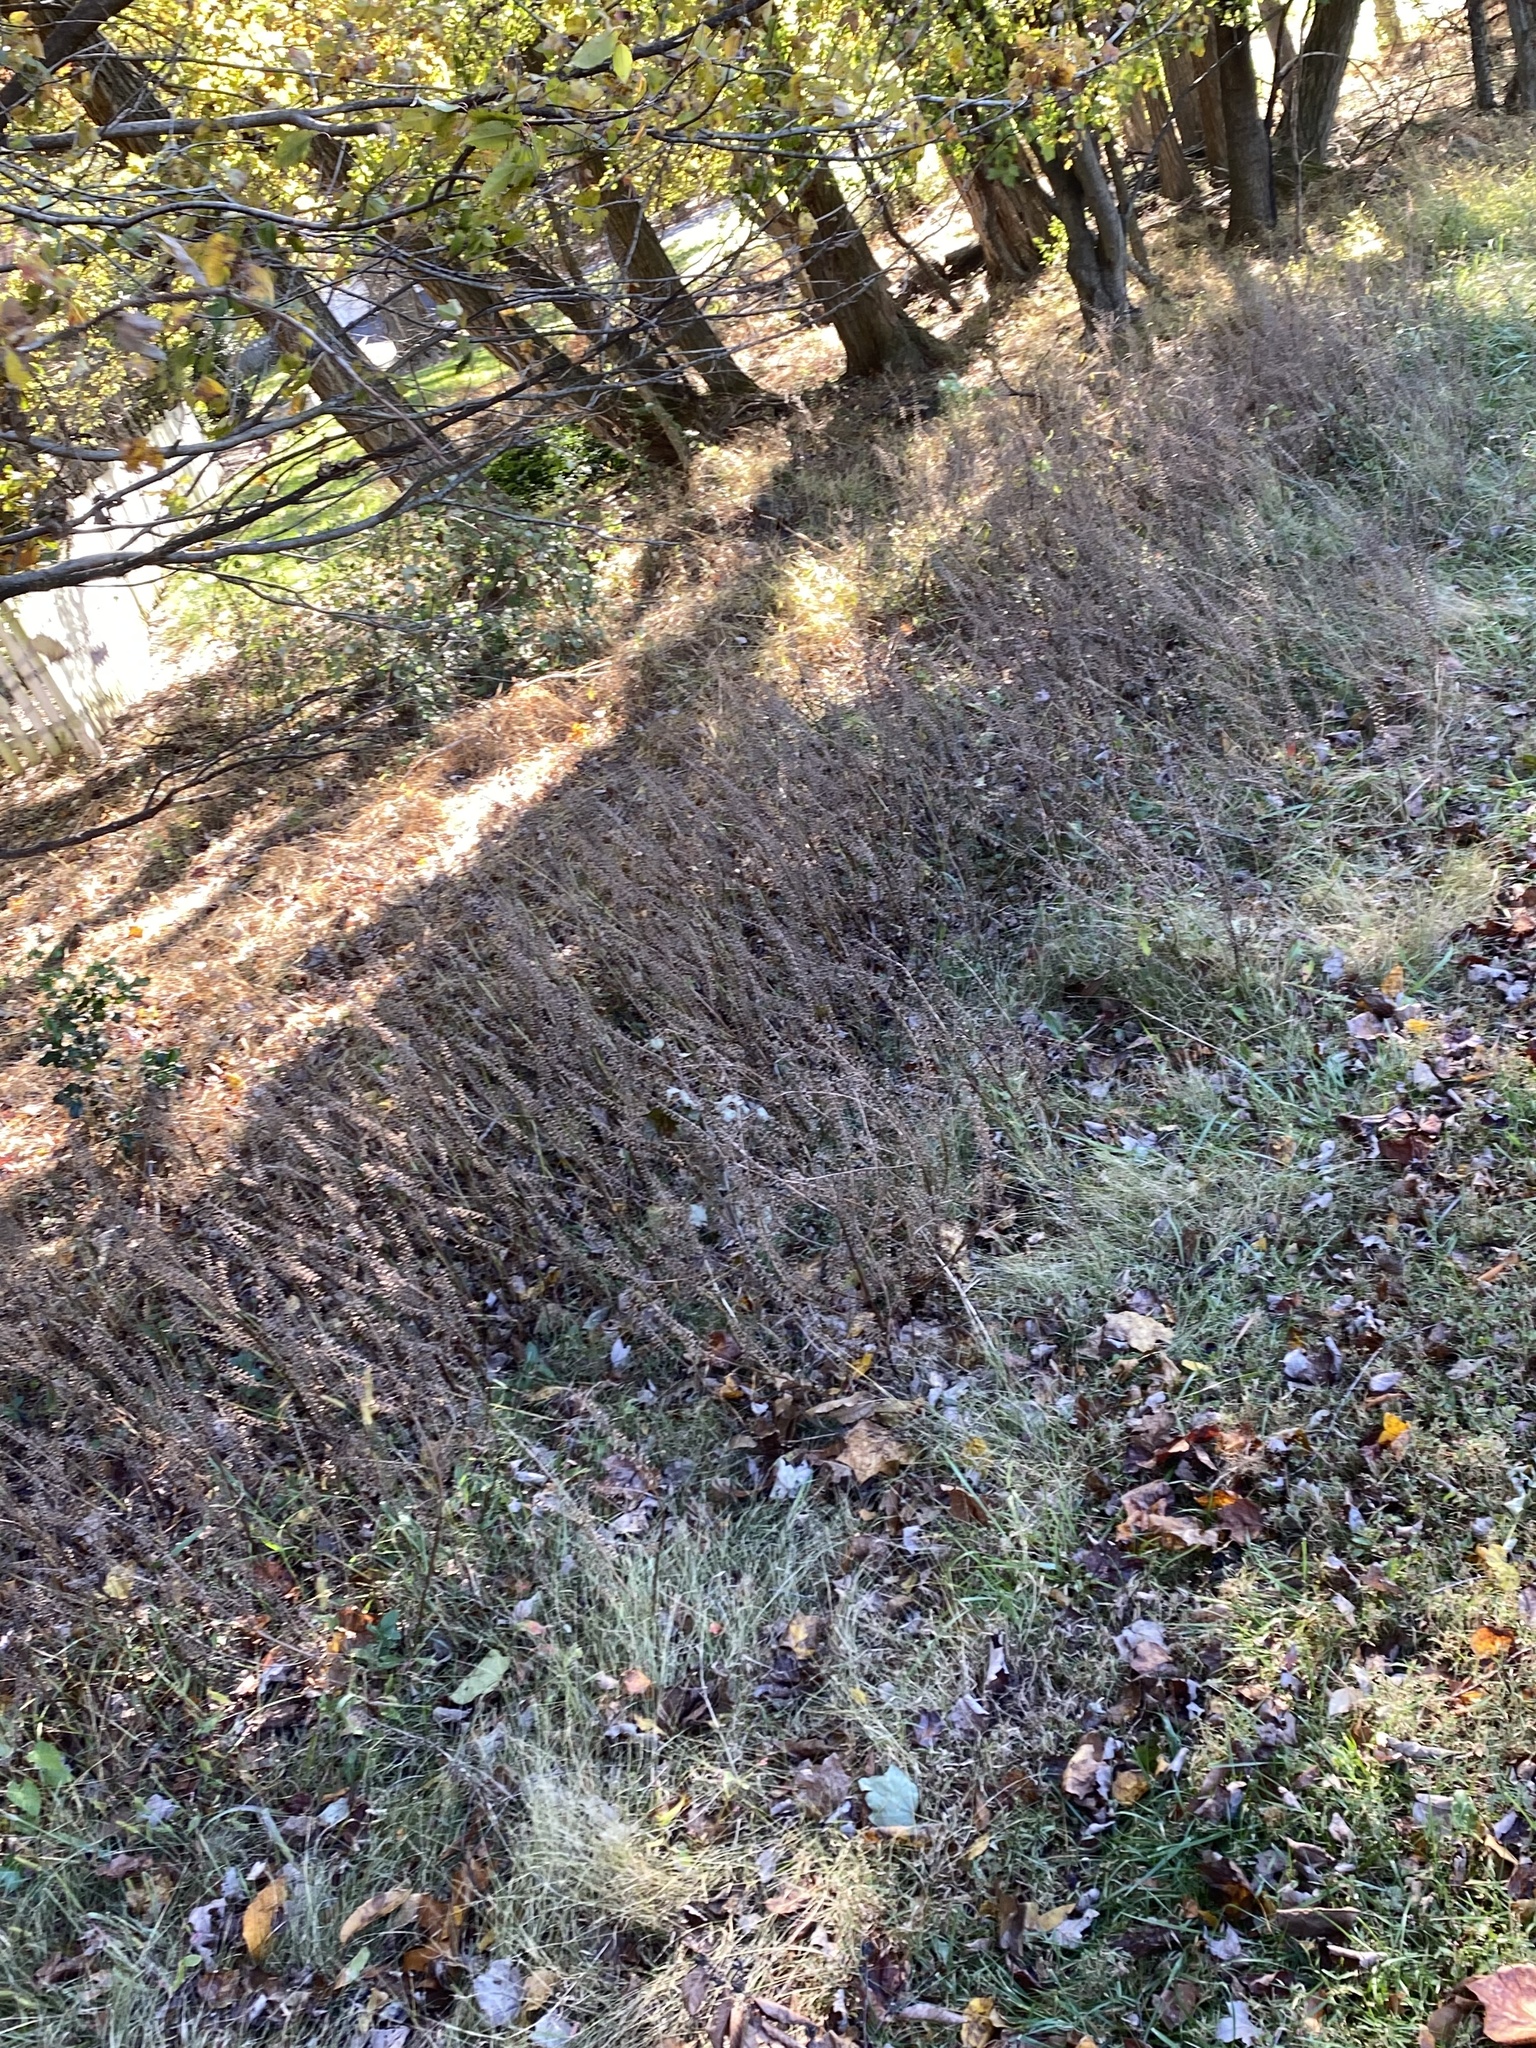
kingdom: Plantae
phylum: Tracheophyta
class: Magnoliopsida
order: Lamiales
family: Lamiaceae
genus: Perilla
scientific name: Perilla frutescens
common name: Perilla
